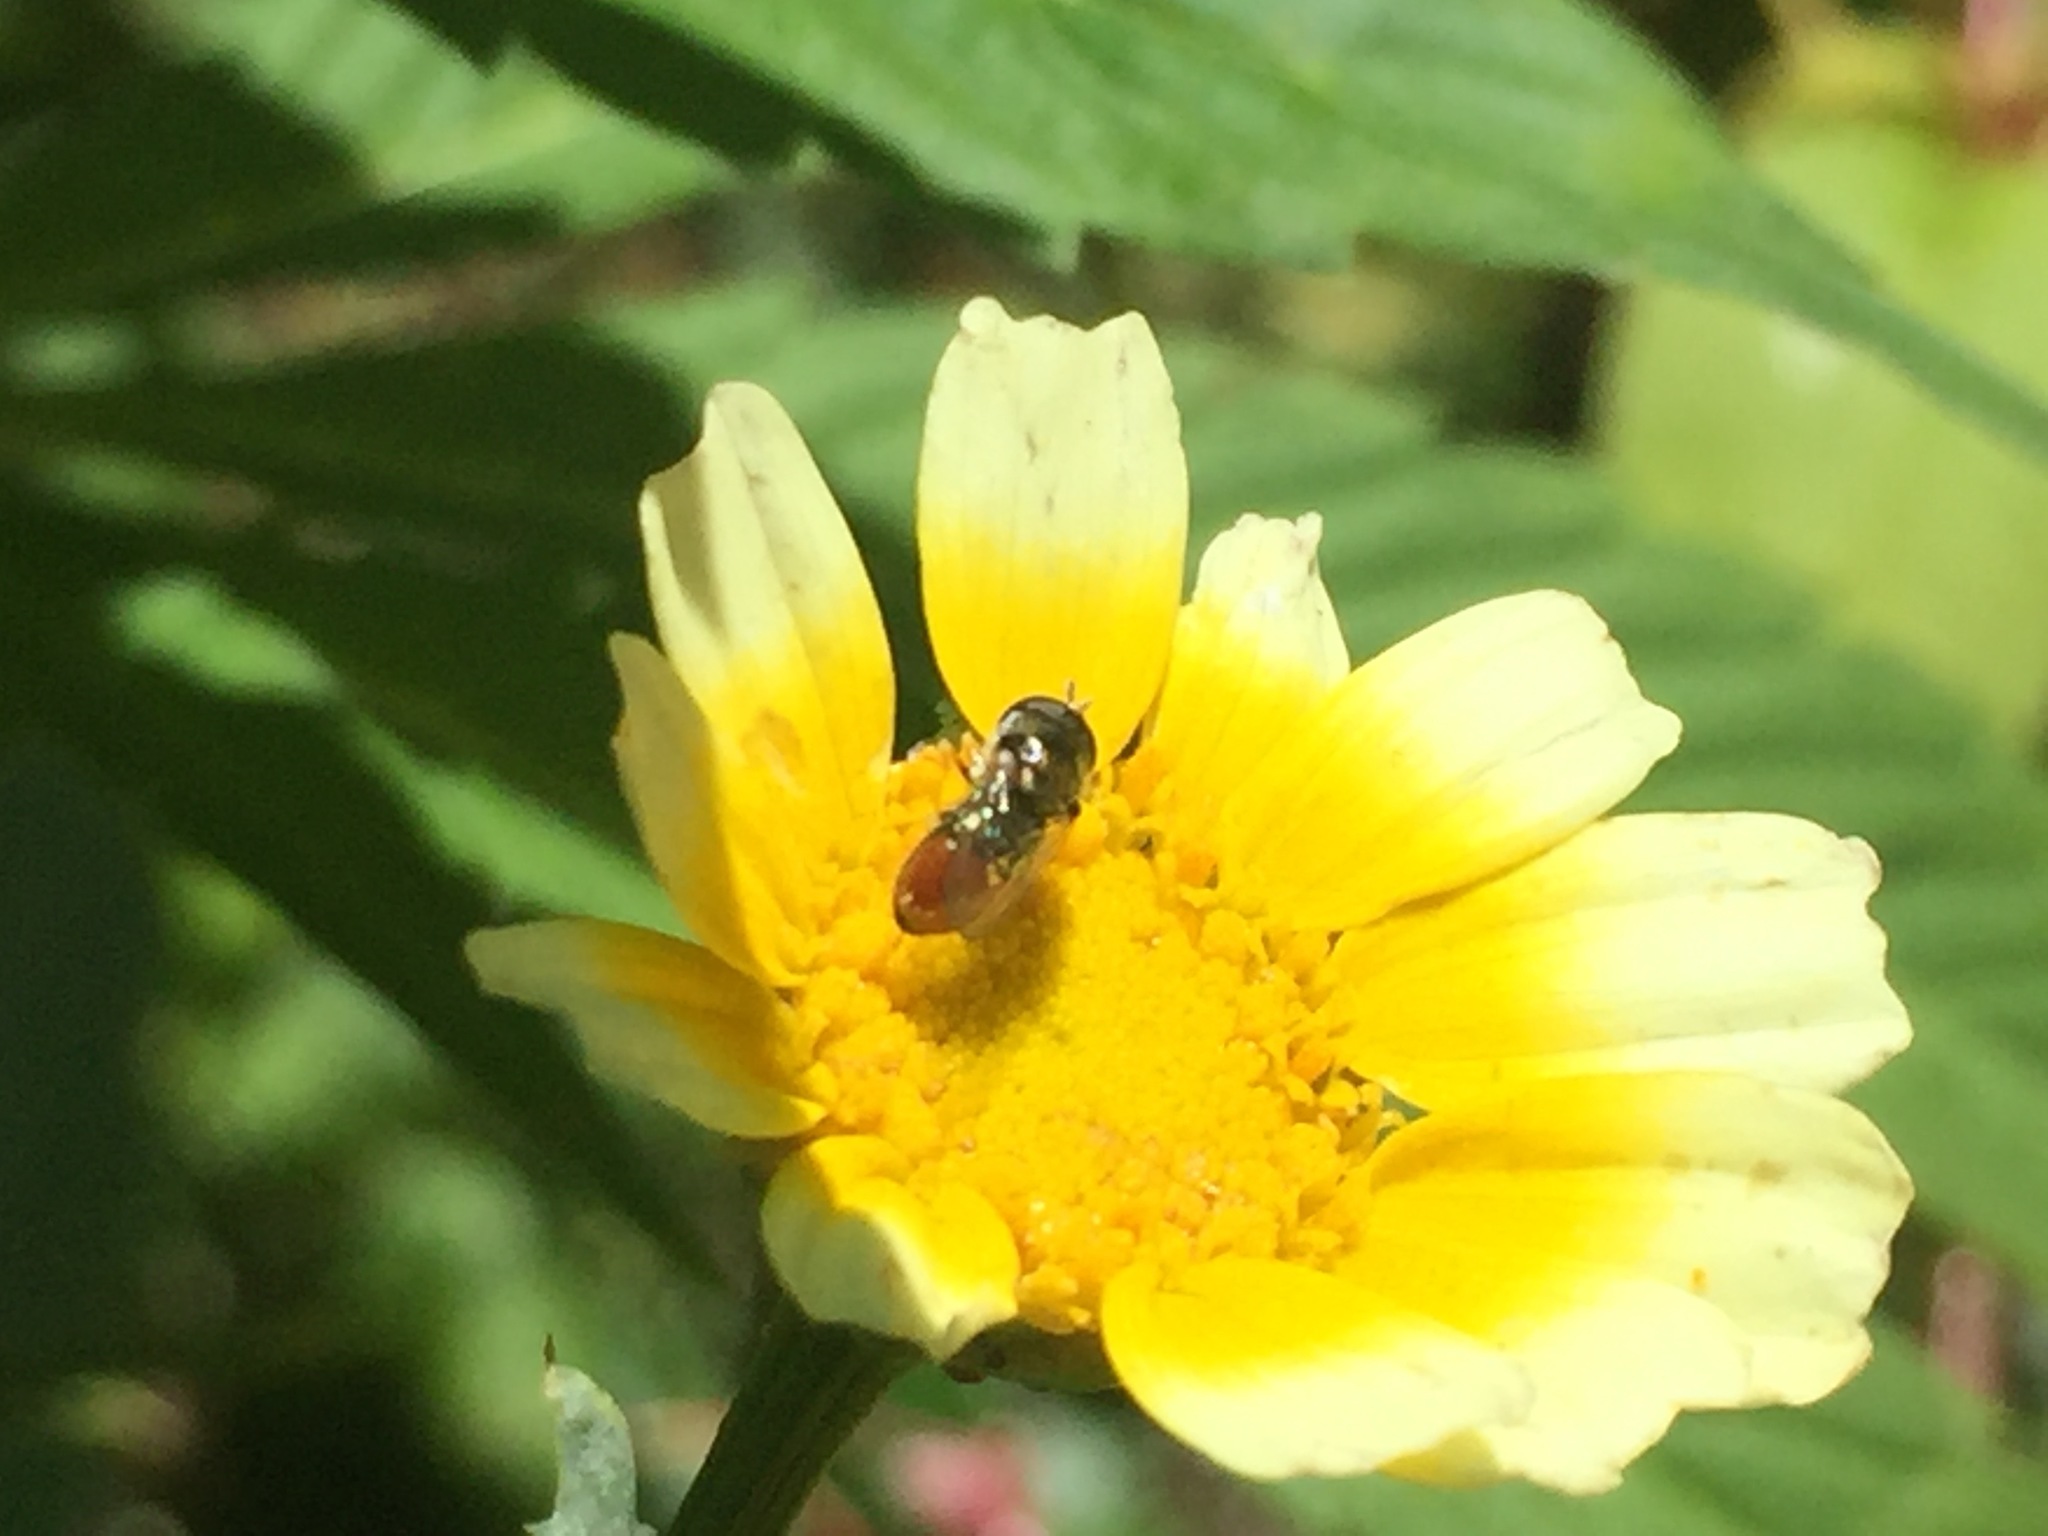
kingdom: Animalia
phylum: Arthropoda
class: Insecta
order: Diptera
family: Syrphidae
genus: Paragus
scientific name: Paragus haemorrhous
